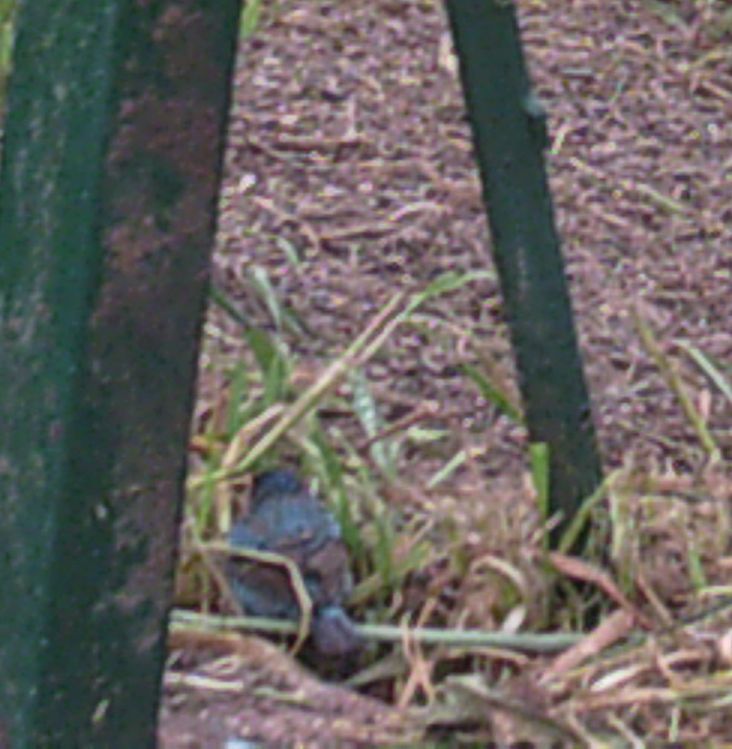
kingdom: Animalia
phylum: Chordata
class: Aves
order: Passeriformes
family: Cardinalidae
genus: Passerina
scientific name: Passerina cyanea
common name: Indigo bunting
